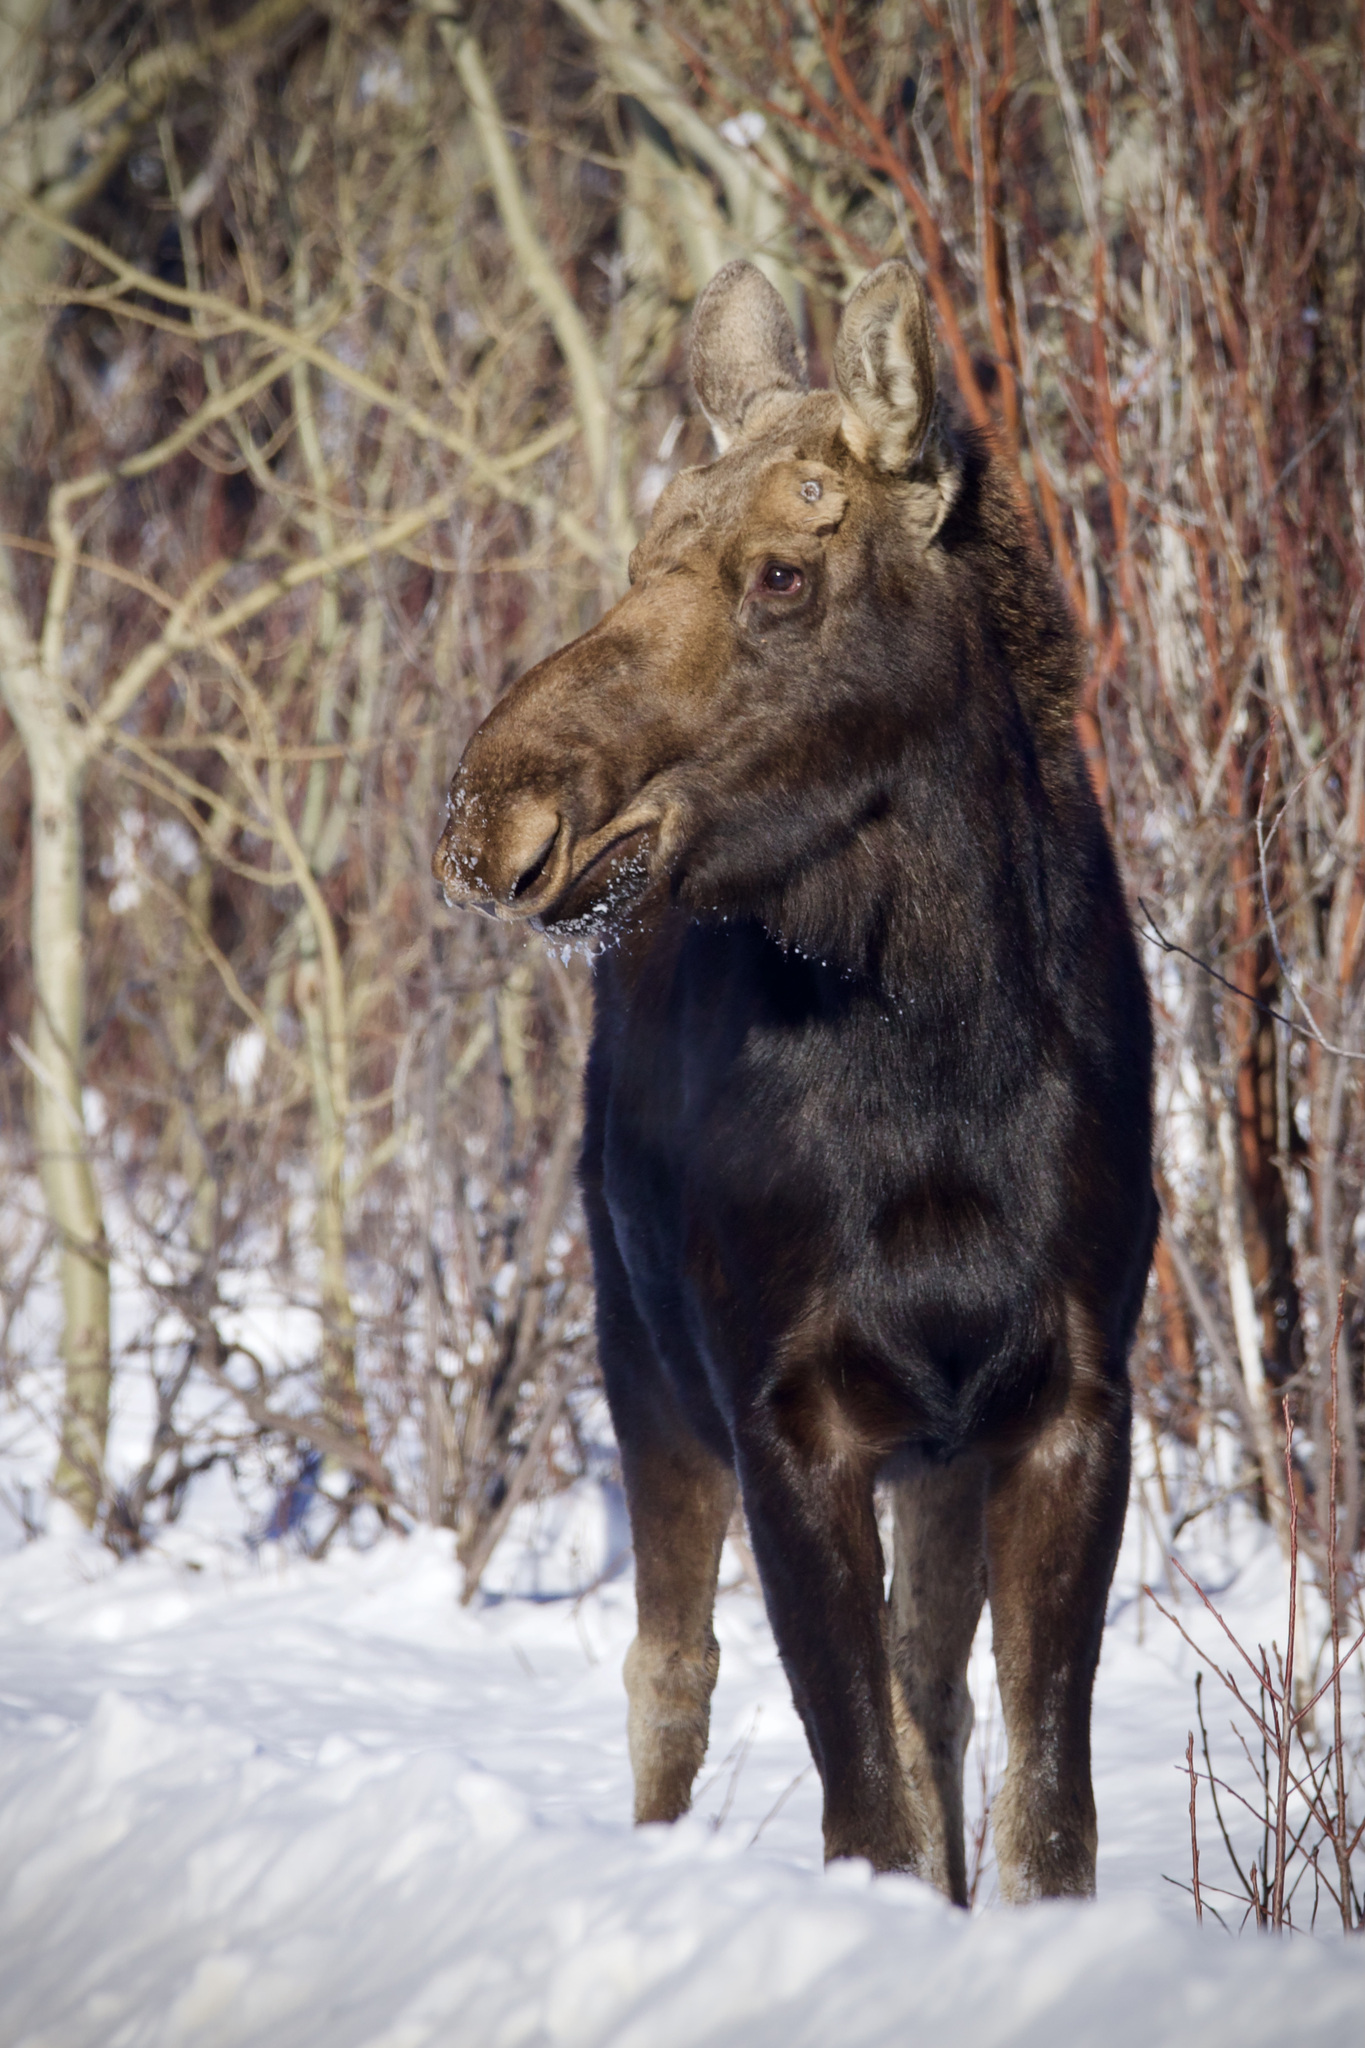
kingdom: Animalia
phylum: Chordata
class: Mammalia
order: Artiodactyla
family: Cervidae
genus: Alces
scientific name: Alces alces
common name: Moose
